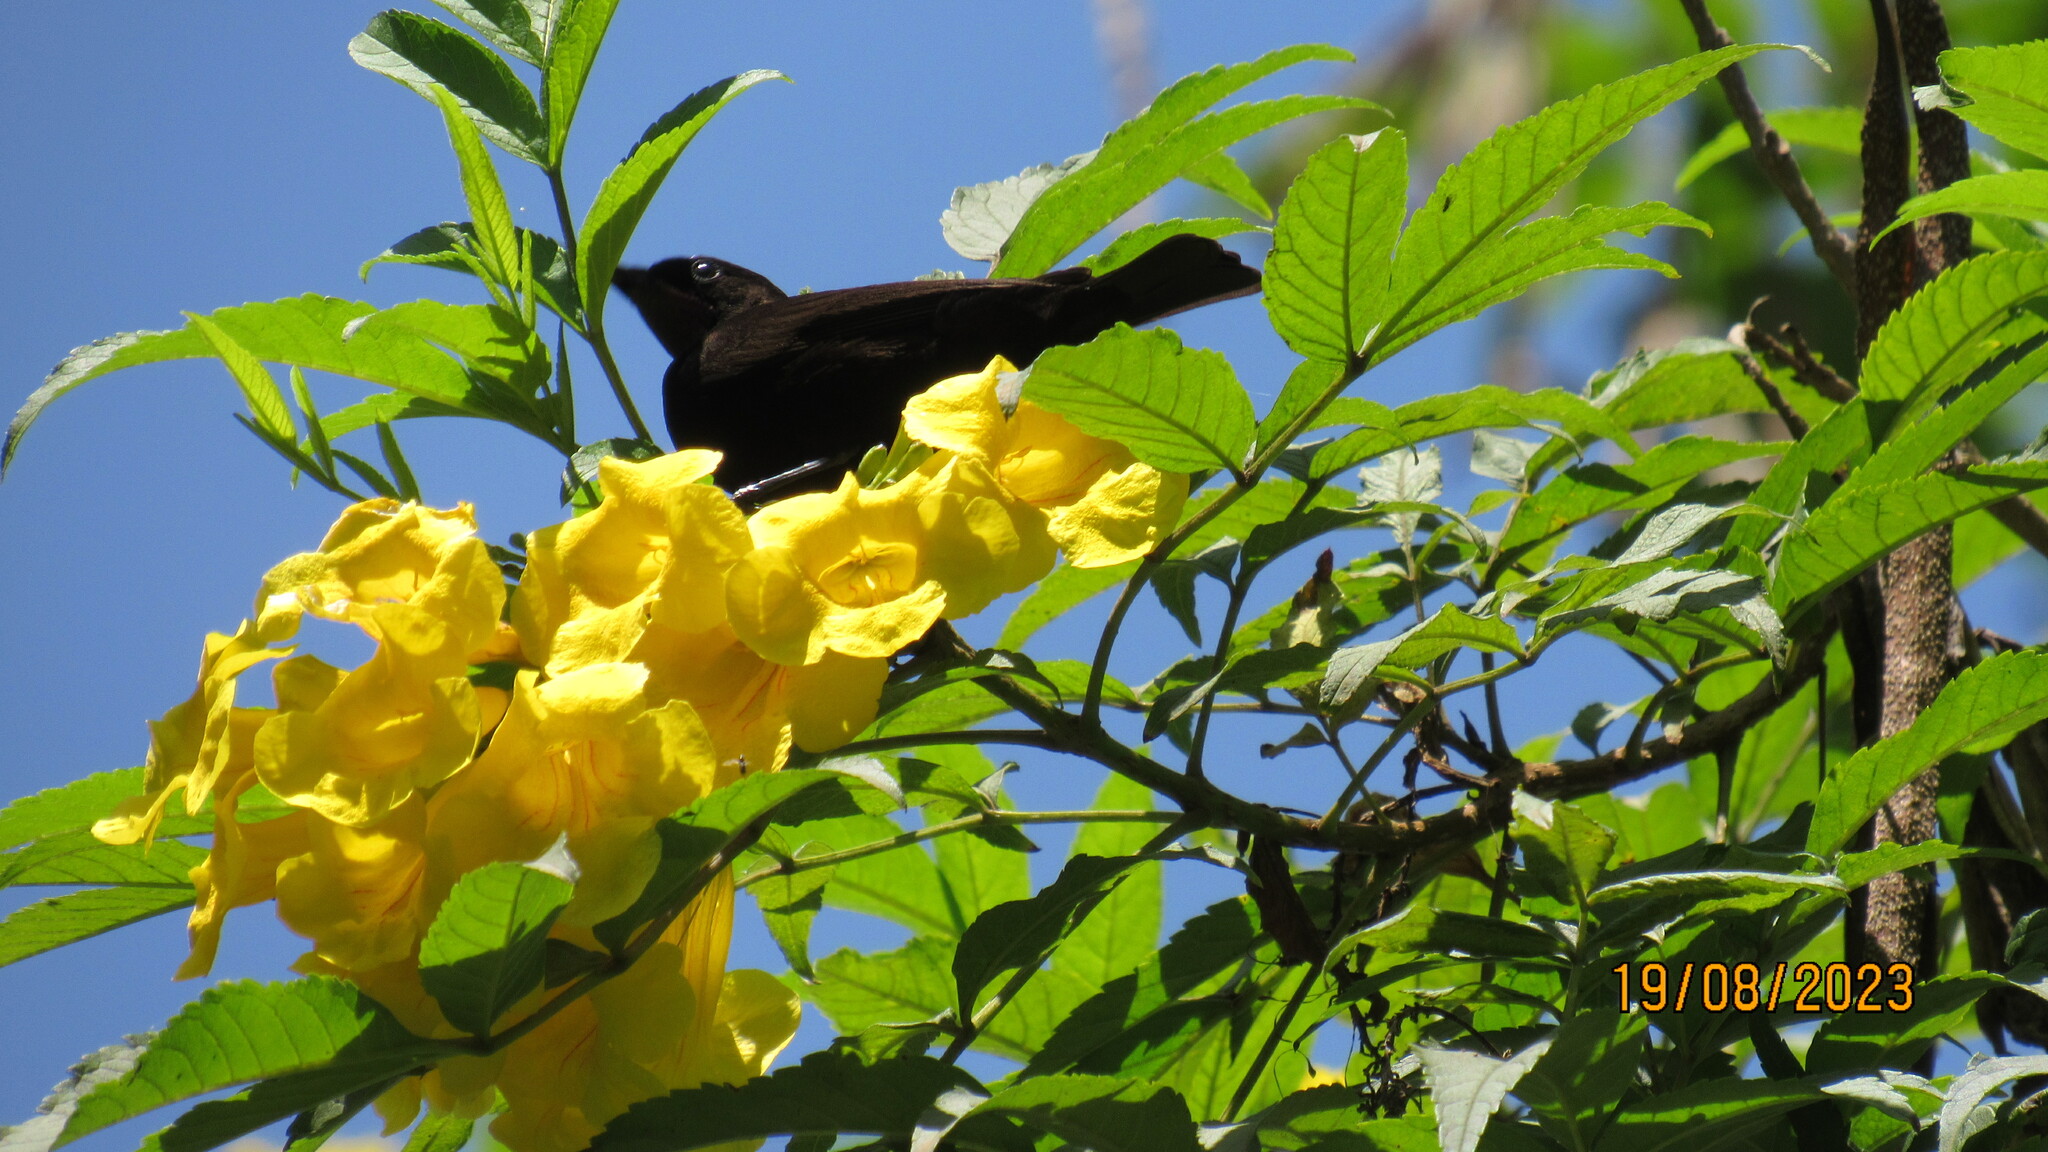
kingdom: Animalia
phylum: Chordata
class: Aves
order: Passeriformes
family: Nectariniidae
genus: Chalcomitra
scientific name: Chalcomitra amethystina
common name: Amethyst sunbird
